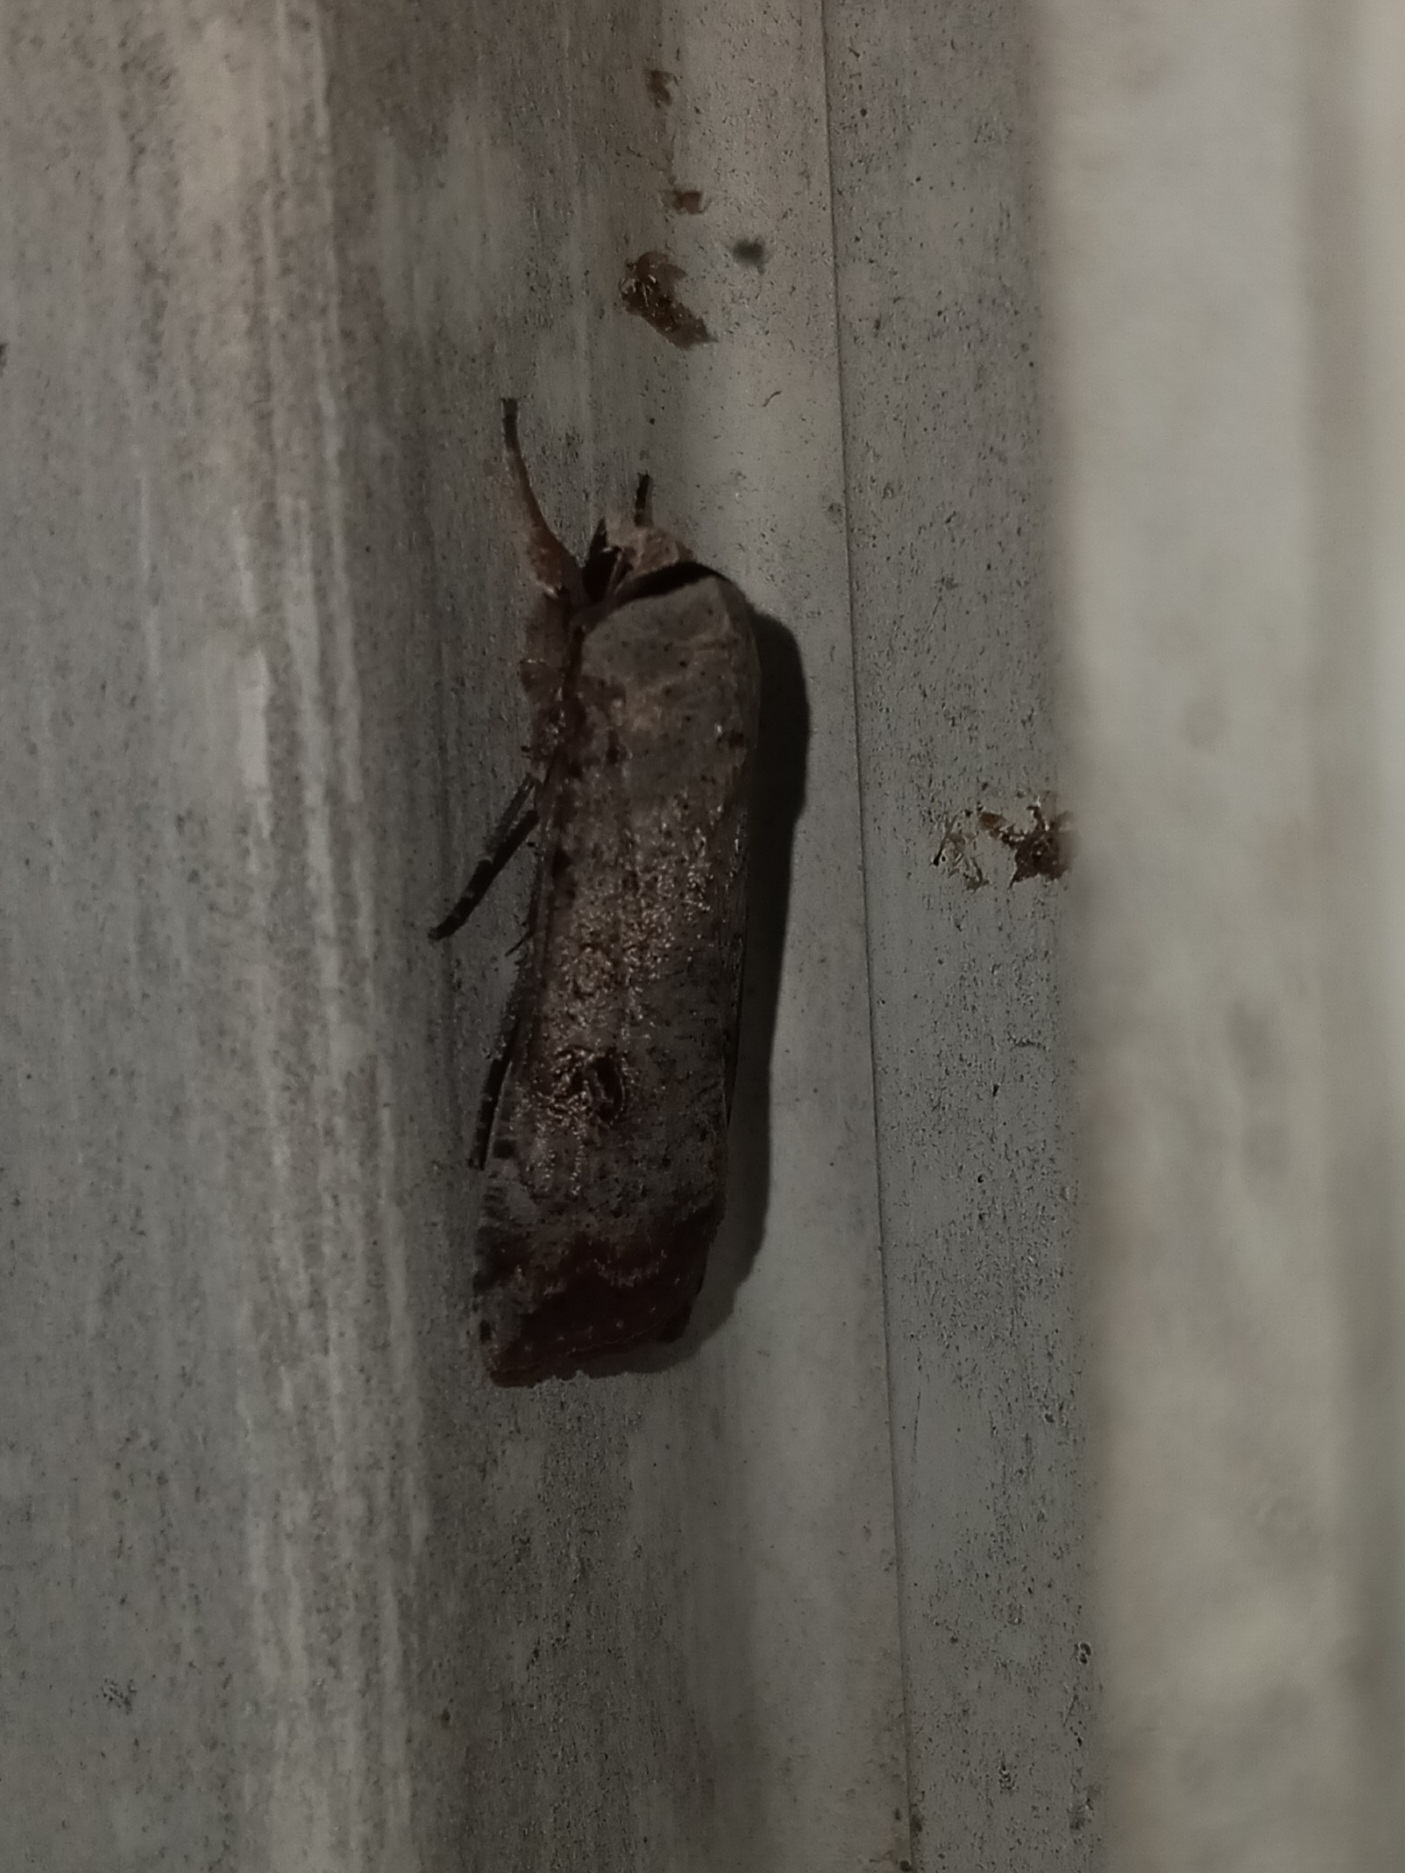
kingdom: Animalia
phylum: Arthropoda
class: Insecta
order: Lepidoptera
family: Noctuidae
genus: Anicla
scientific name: Anicla infecta
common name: Green cutworm
